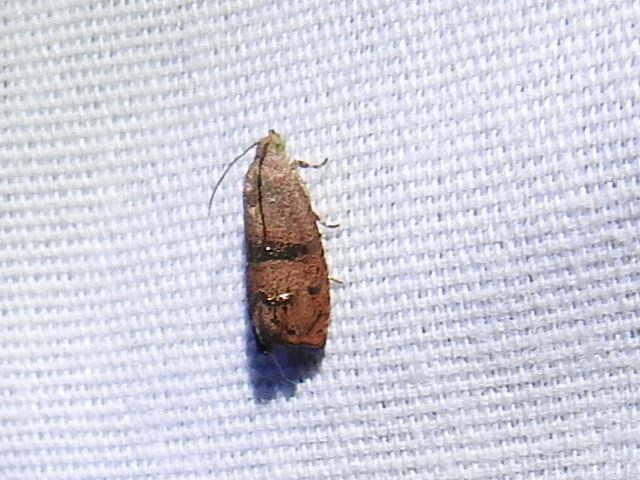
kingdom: Animalia
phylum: Arthropoda
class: Insecta
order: Lepidoptera
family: Tortricidae
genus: Cydia
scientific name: Cydia latiferreana
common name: Filbertworm moth
